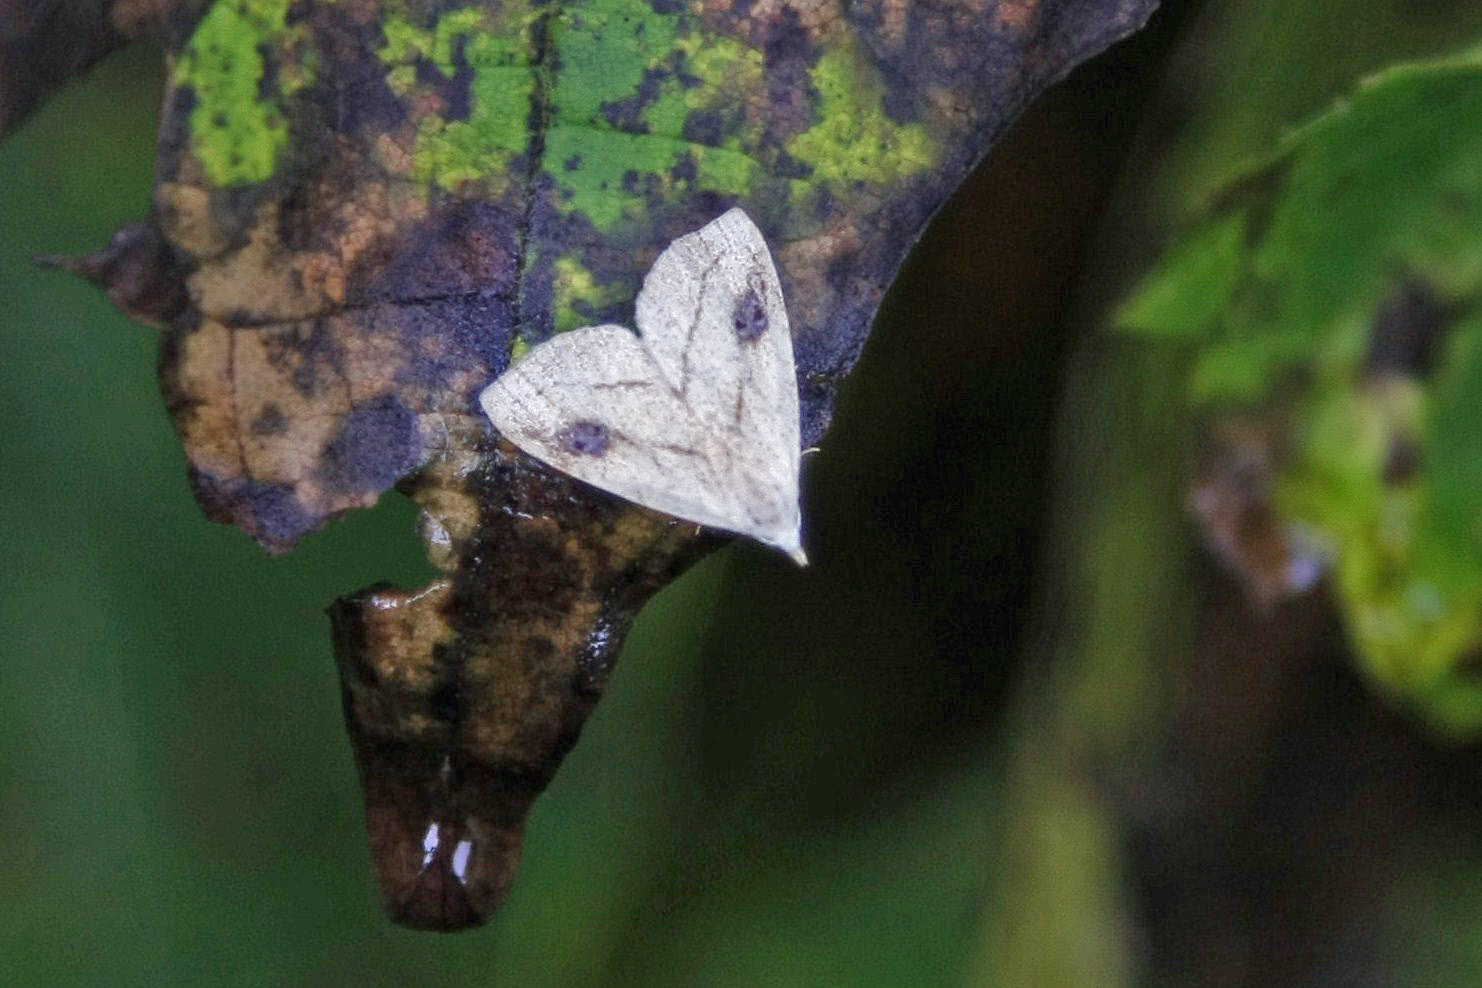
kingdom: Animalia
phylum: Arthropoda
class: Insecta
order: Lepidoptera
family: Erebidae
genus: Rivula
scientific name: Rivula propinqualis
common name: Spotted grass moth
